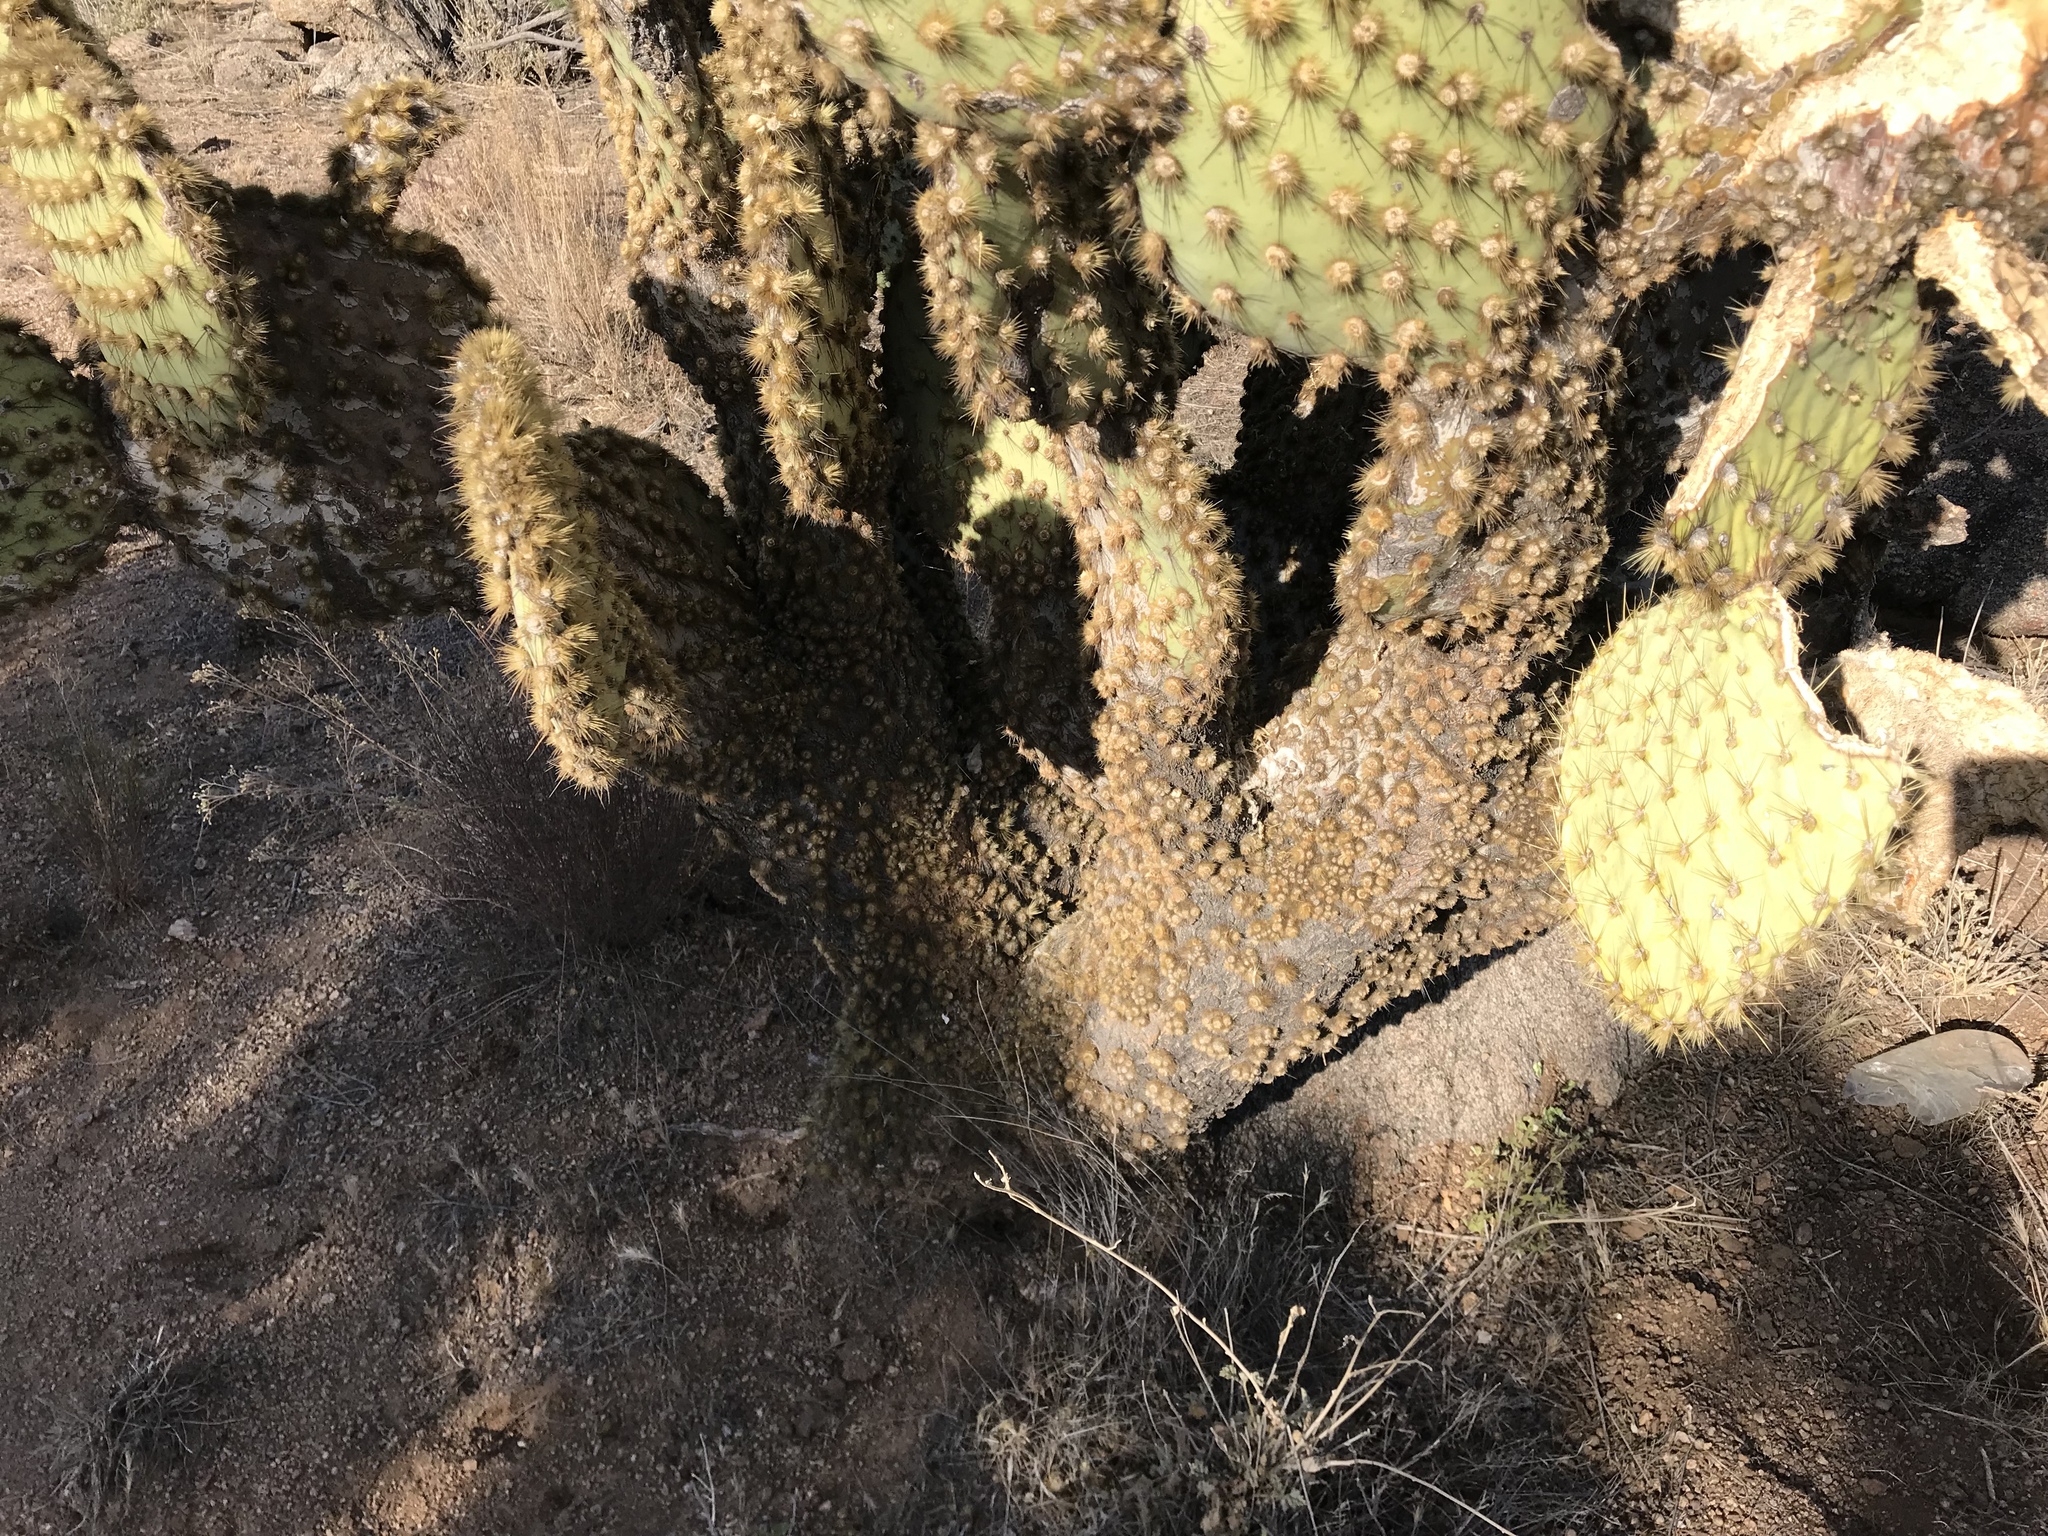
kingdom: Plantae
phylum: Tracheophyta
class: Magnoliopsida
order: Caryophyllales
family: Cactaceae
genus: Opuntia
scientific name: Opuntia chlorotica
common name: Dollar-joint prickly-pear
